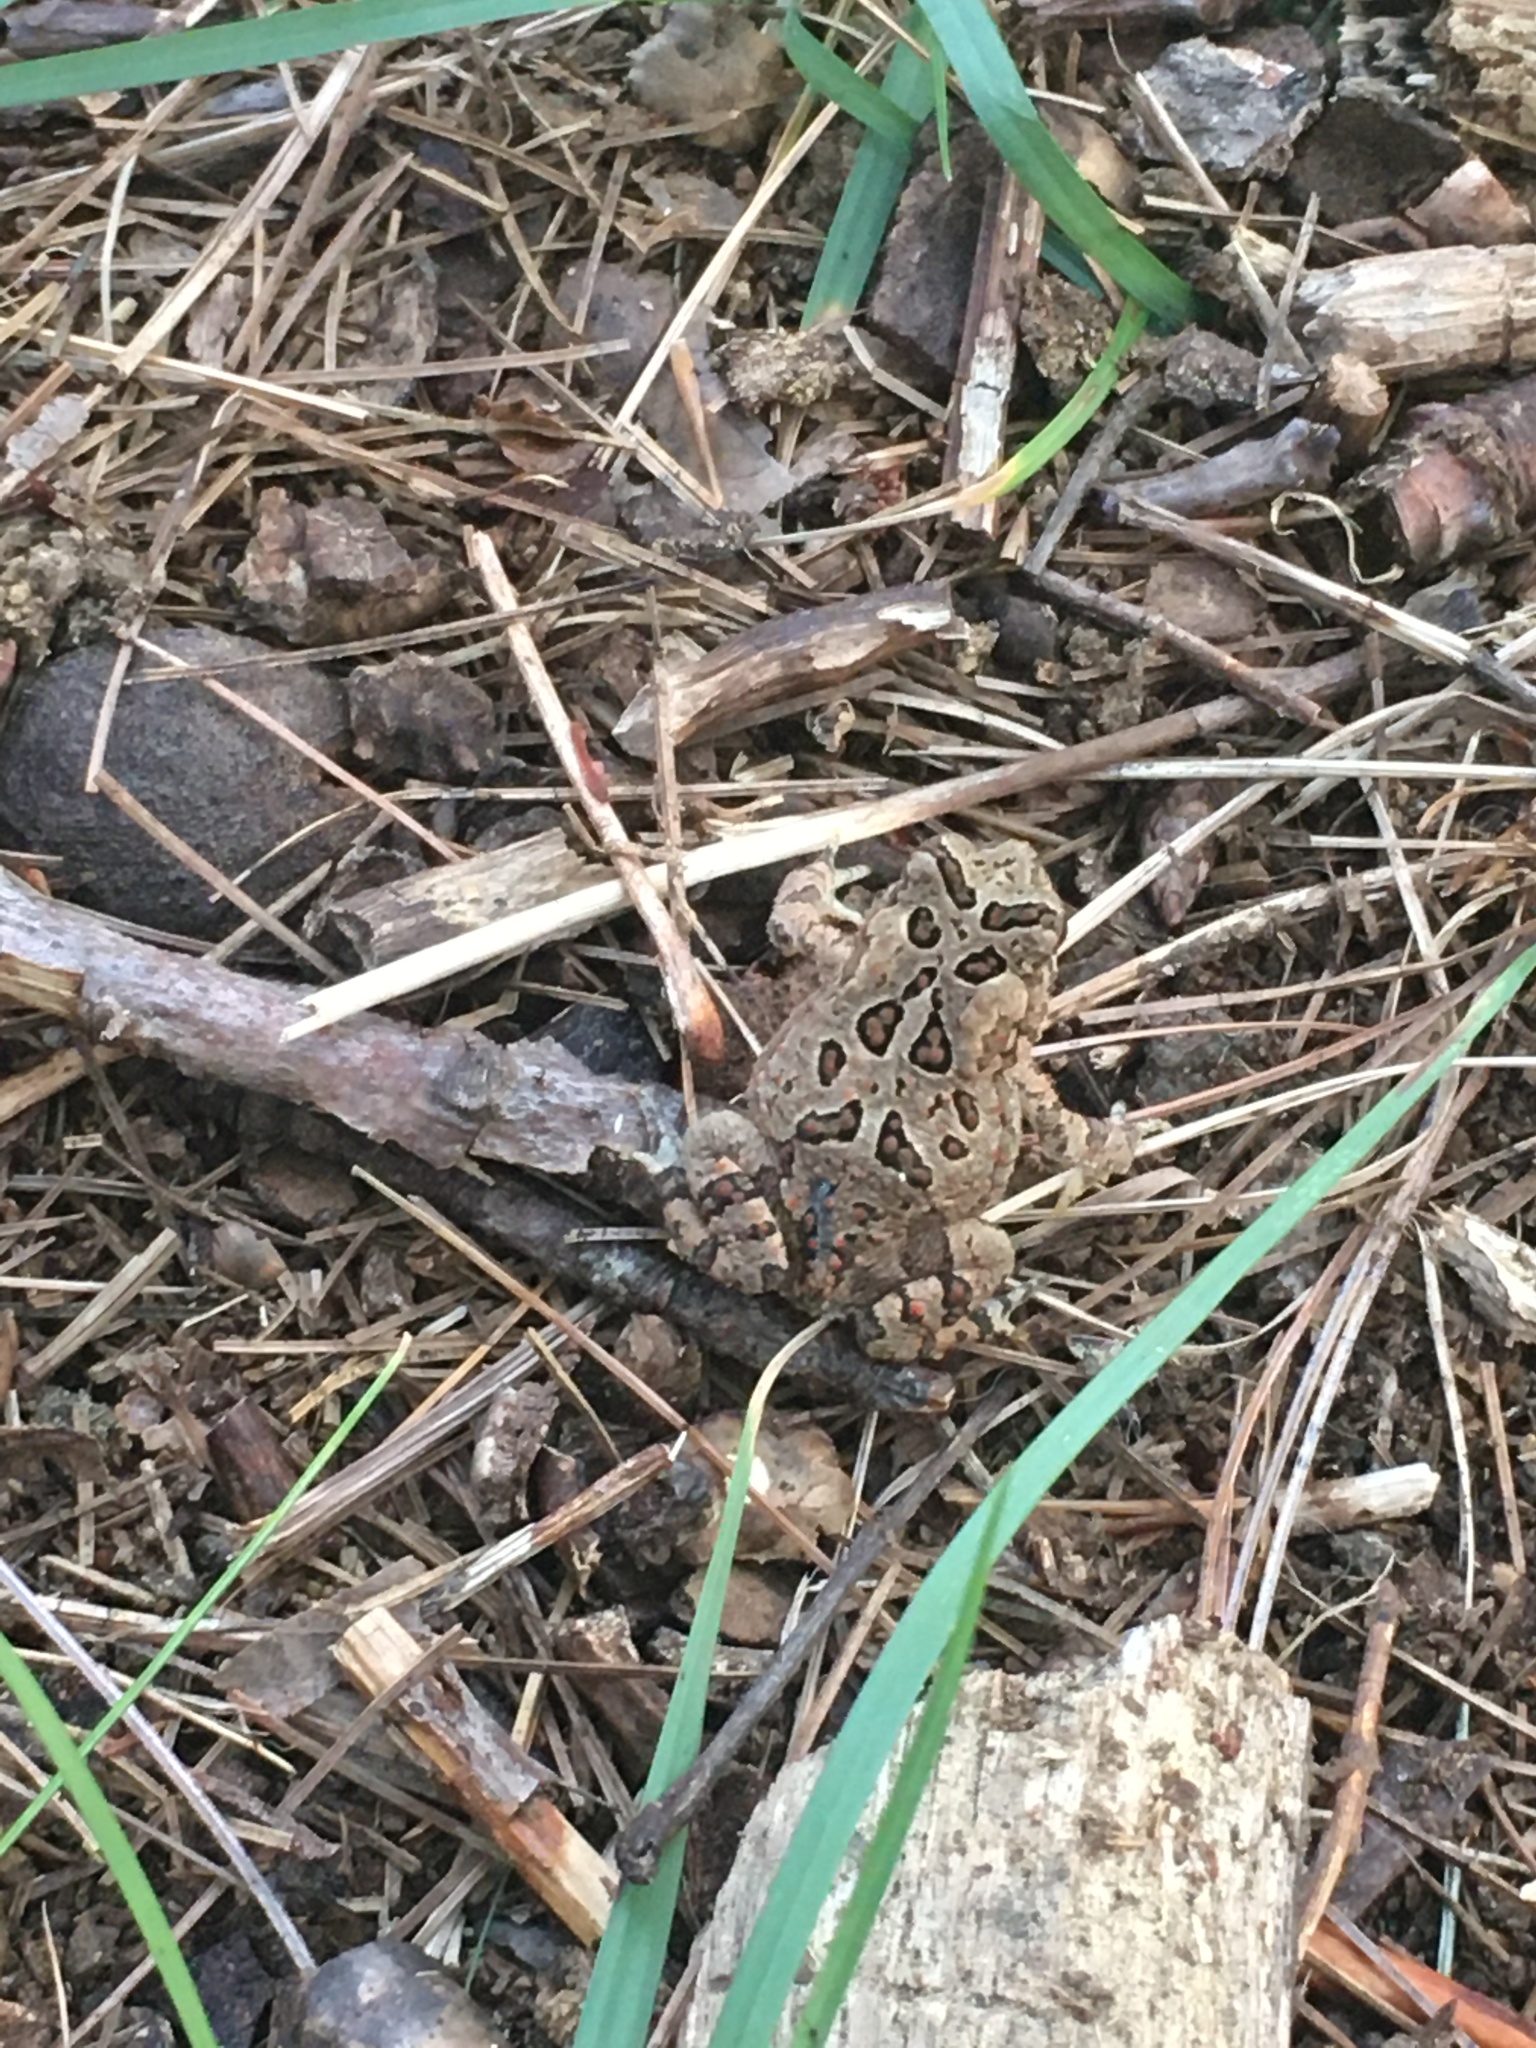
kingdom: Animalia
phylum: Chordata
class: Amphibia
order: Anura
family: Bufonidae
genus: Anaxyrus
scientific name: Anaxyrus americanus
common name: American toad
